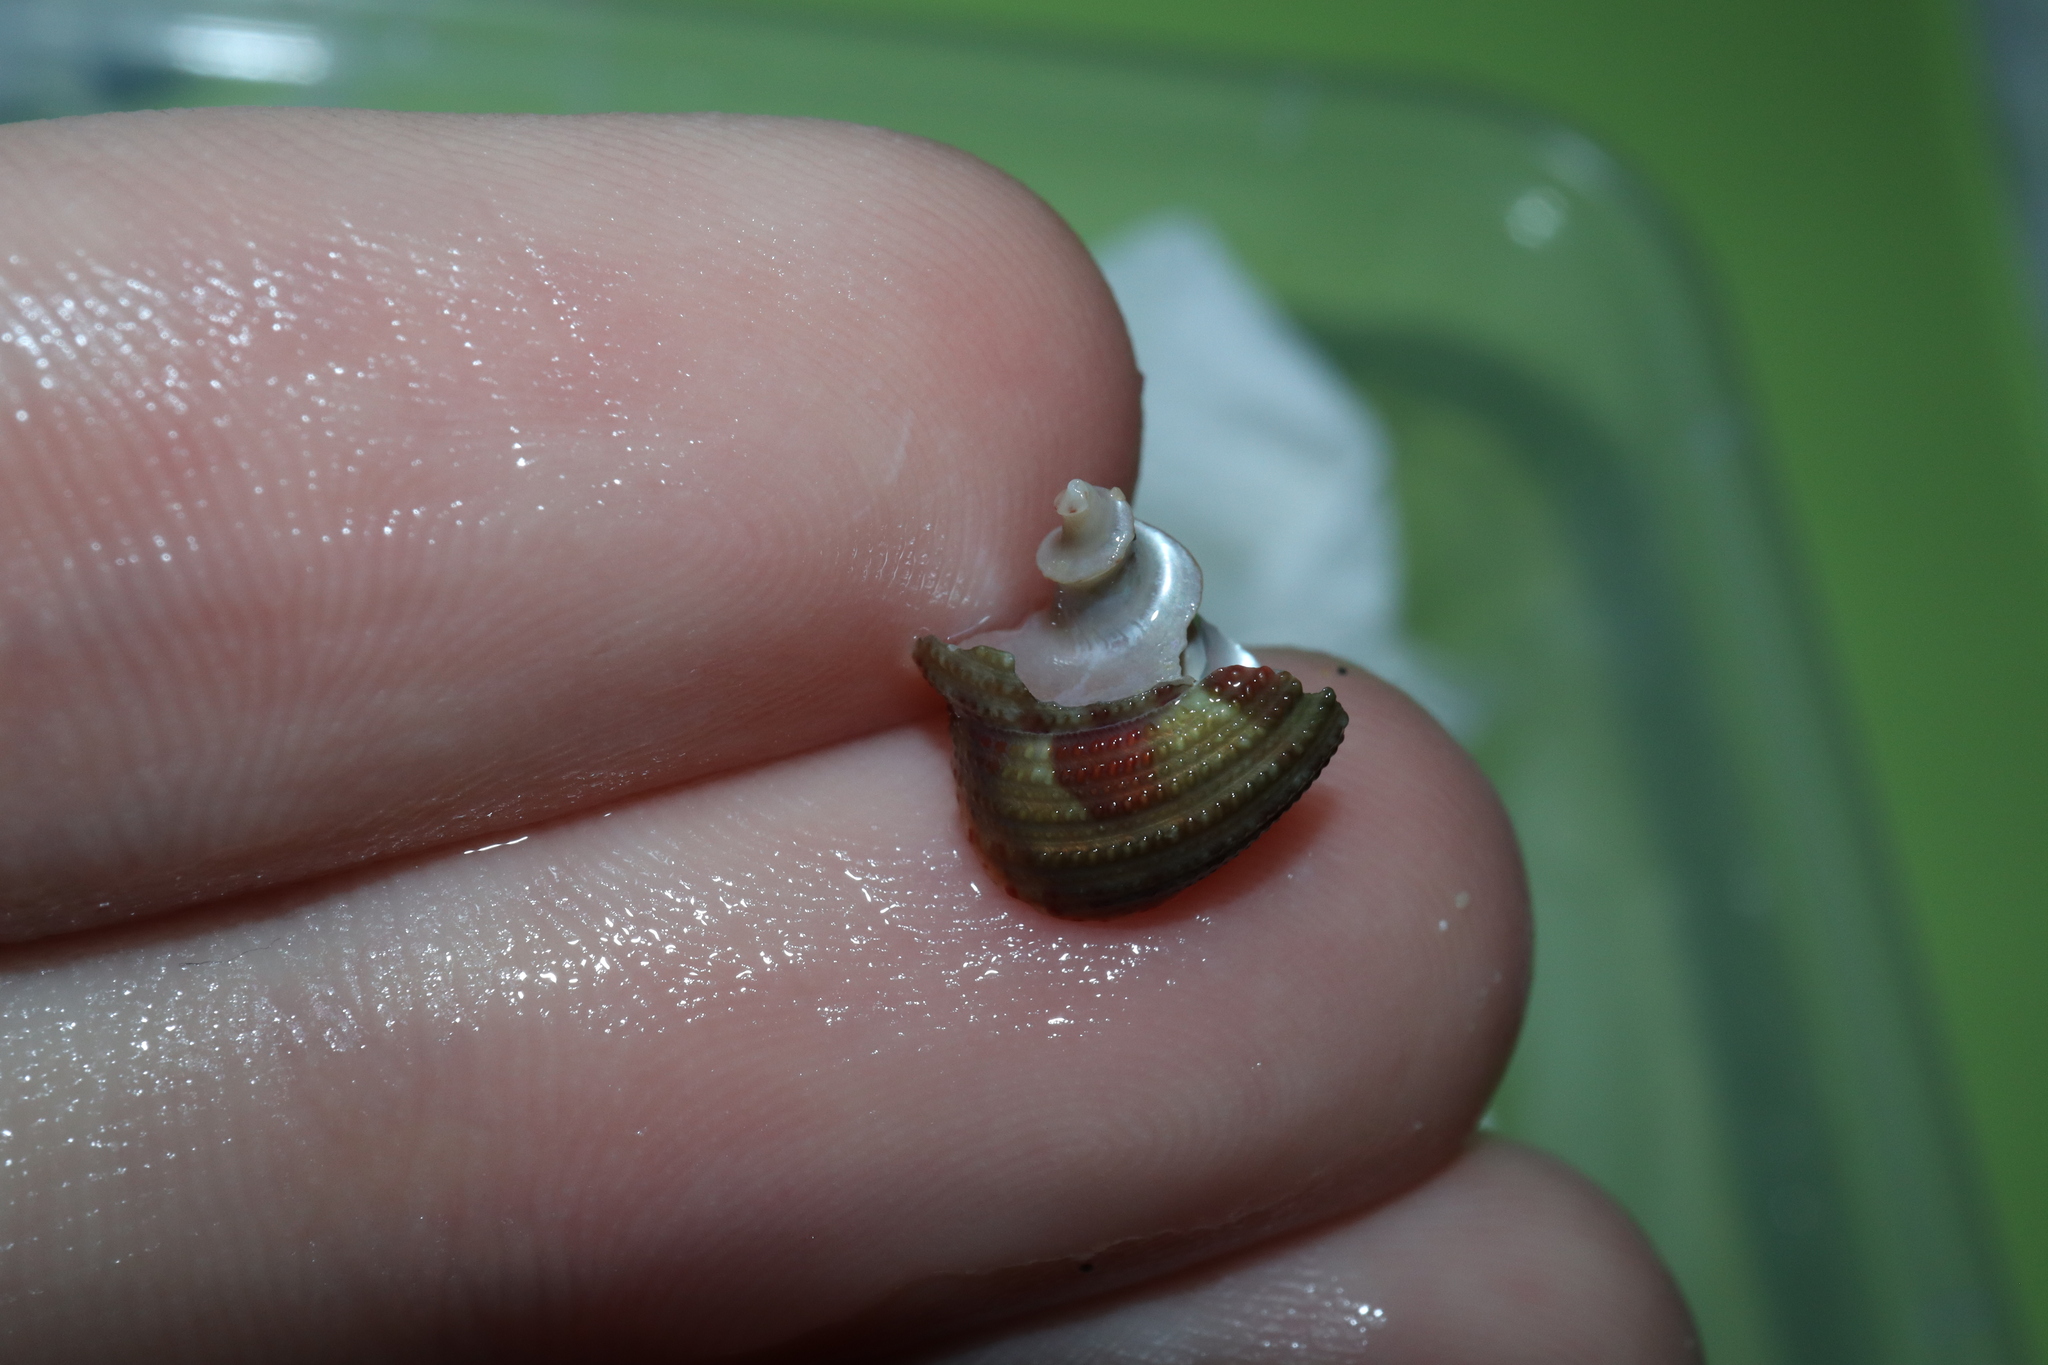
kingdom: Animalia
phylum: Mollusca
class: Gastropoda
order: Trochida
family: Trochidae
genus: Clanculus
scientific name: Clanculus clangulus
